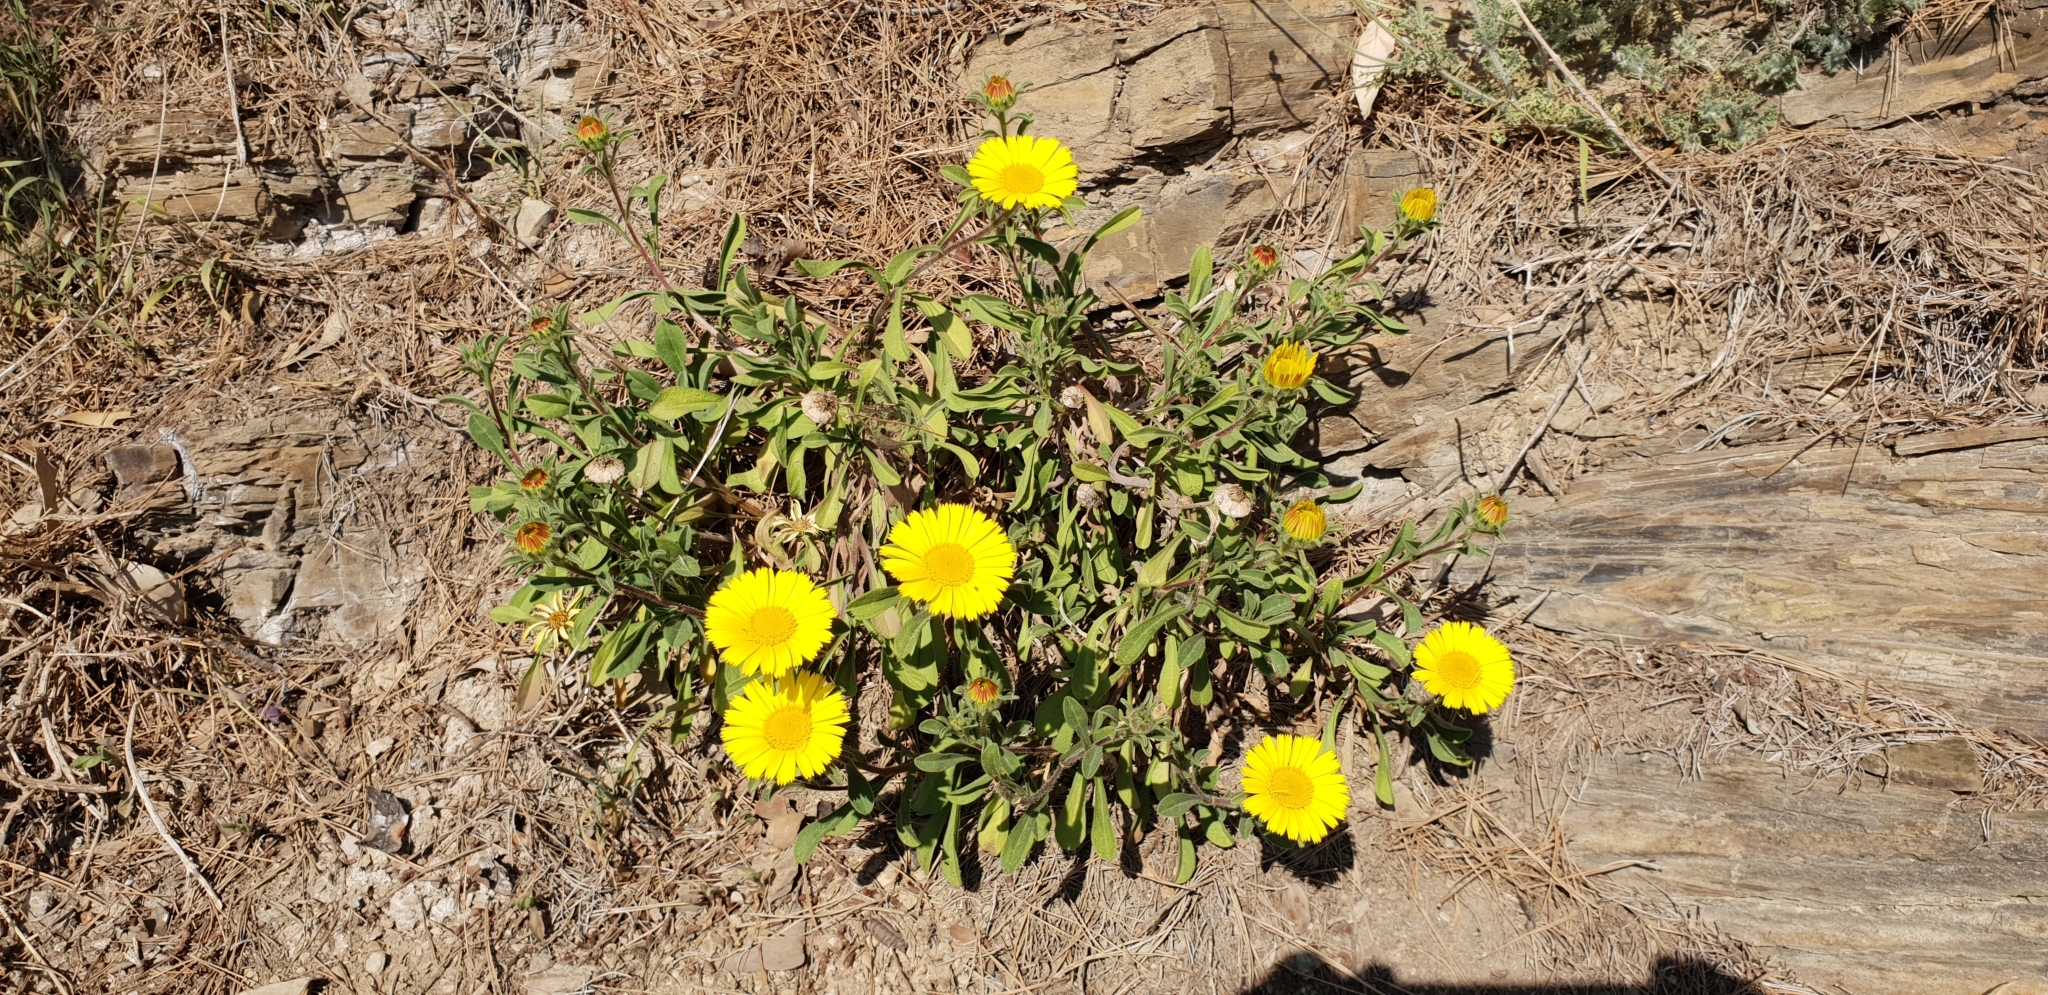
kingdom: Plantae
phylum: Tracheophyta
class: Magnoliopsida
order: Asterales
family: Asteraceae
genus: Pallenis
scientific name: Pallenis maritima
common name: Golden coin daisy
